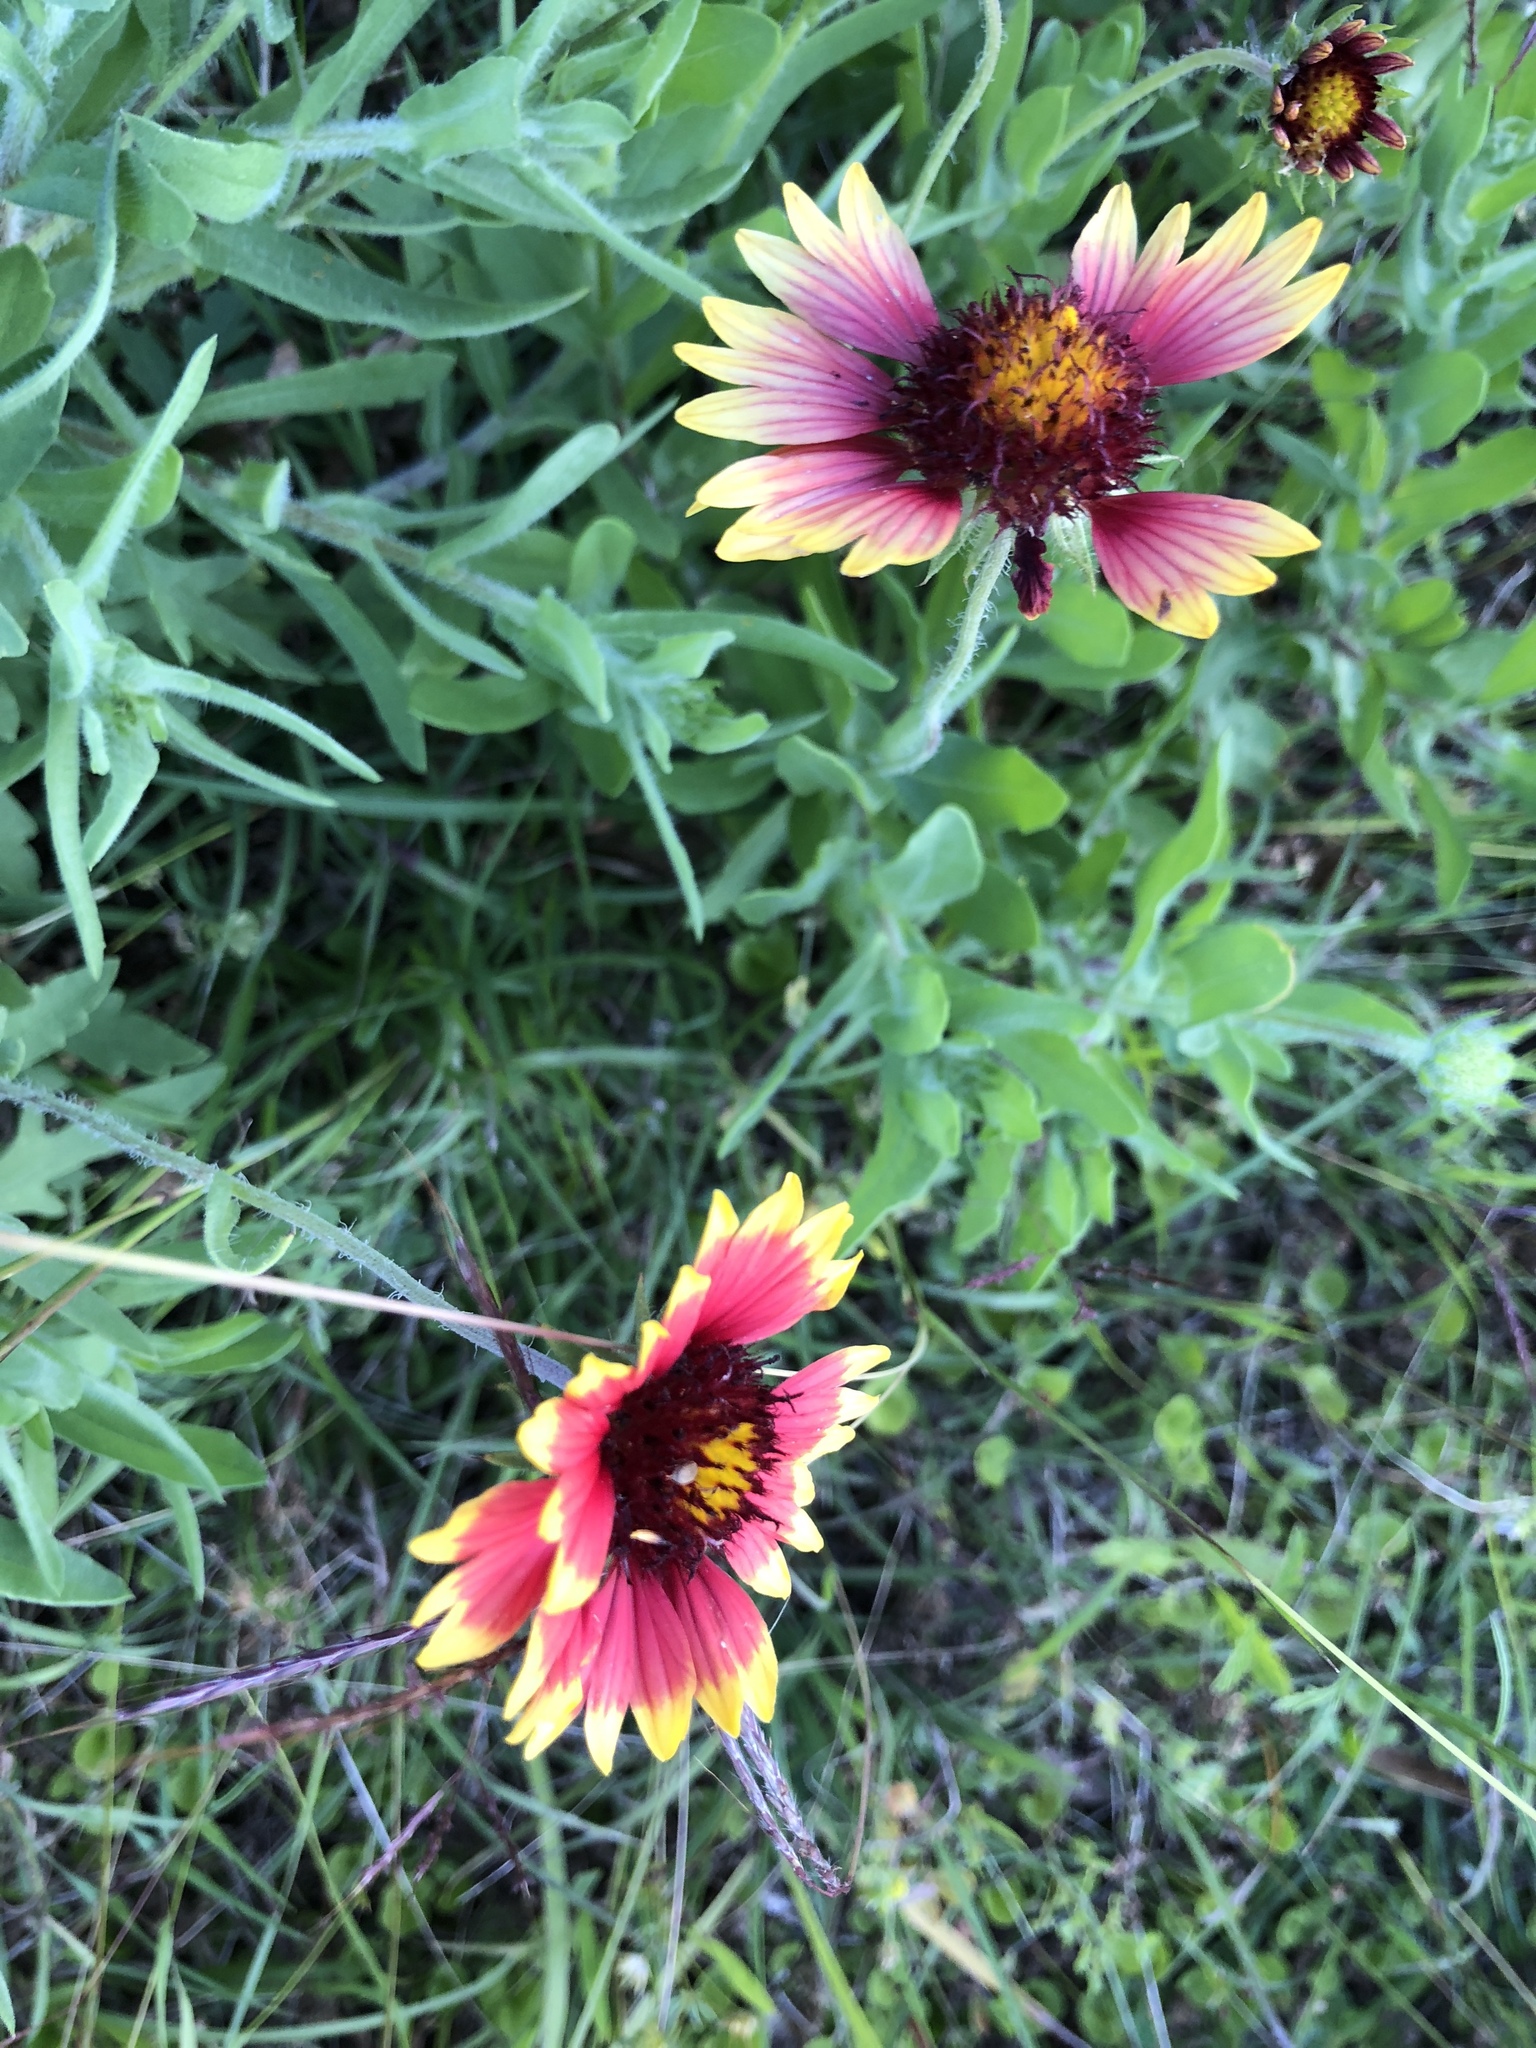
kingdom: Plantae
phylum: Tracheophyta
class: Magnoliopsida
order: Asterales
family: Asteraceae
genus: Gaillardia
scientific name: Gaillardia pulchella
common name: Firewheel
